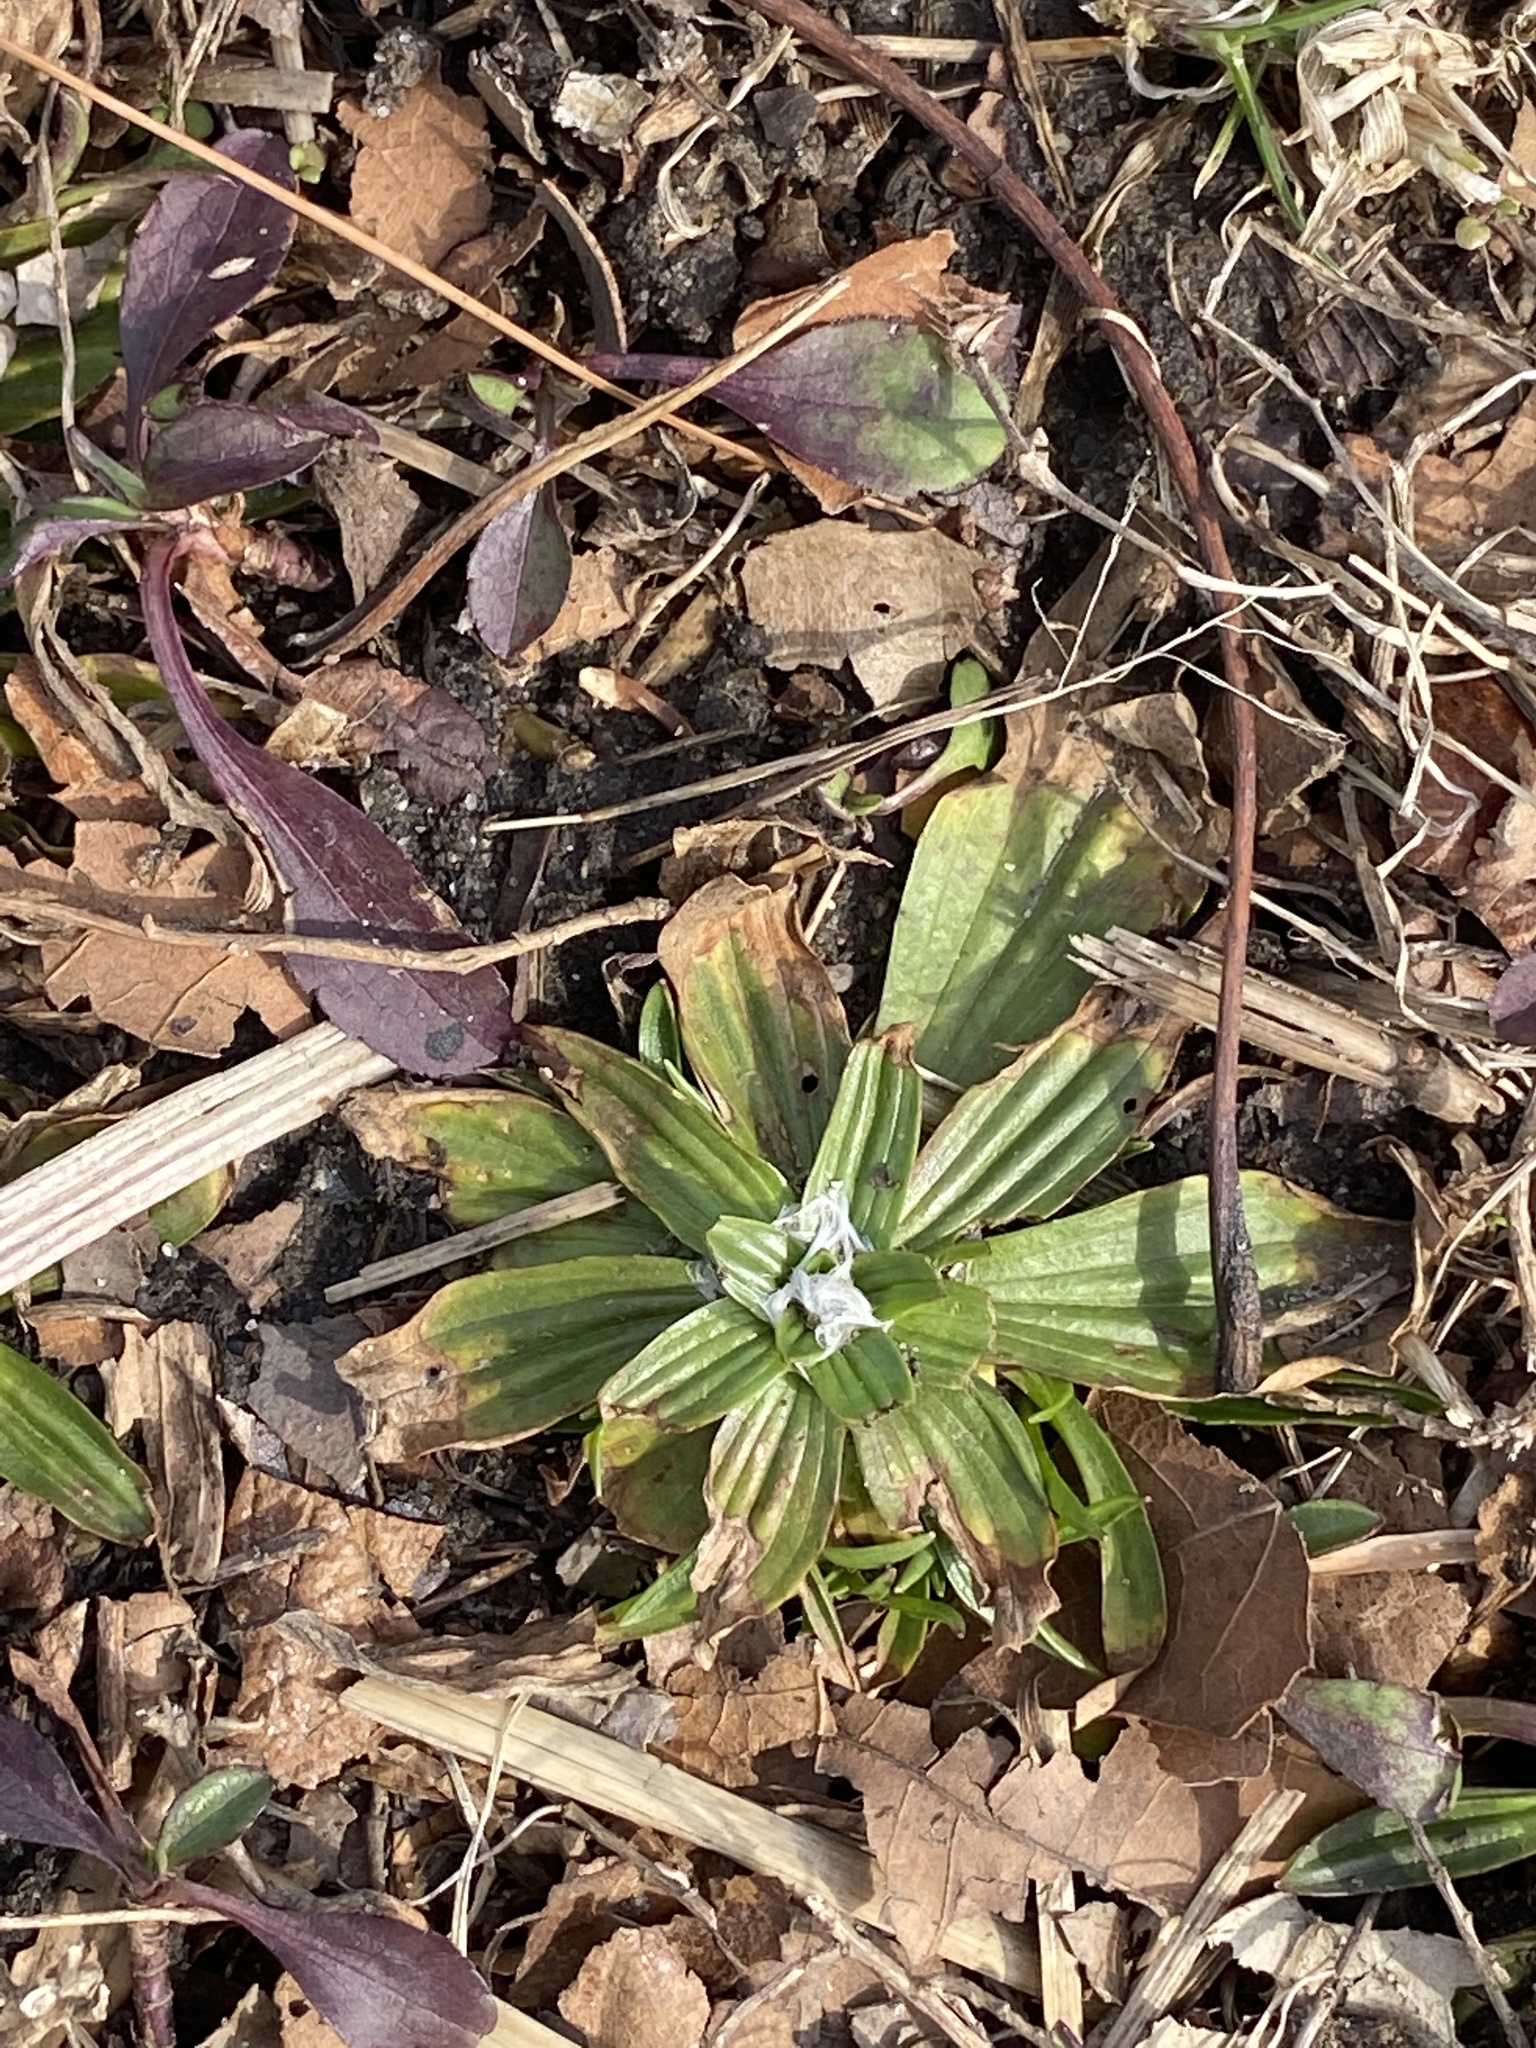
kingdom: Plantae
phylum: Tracheophyta
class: Magnoliopsida
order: Lamiales
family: Plantaginaceae
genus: Plantago
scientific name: Plantago lanceolata
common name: Ribwort plantain
